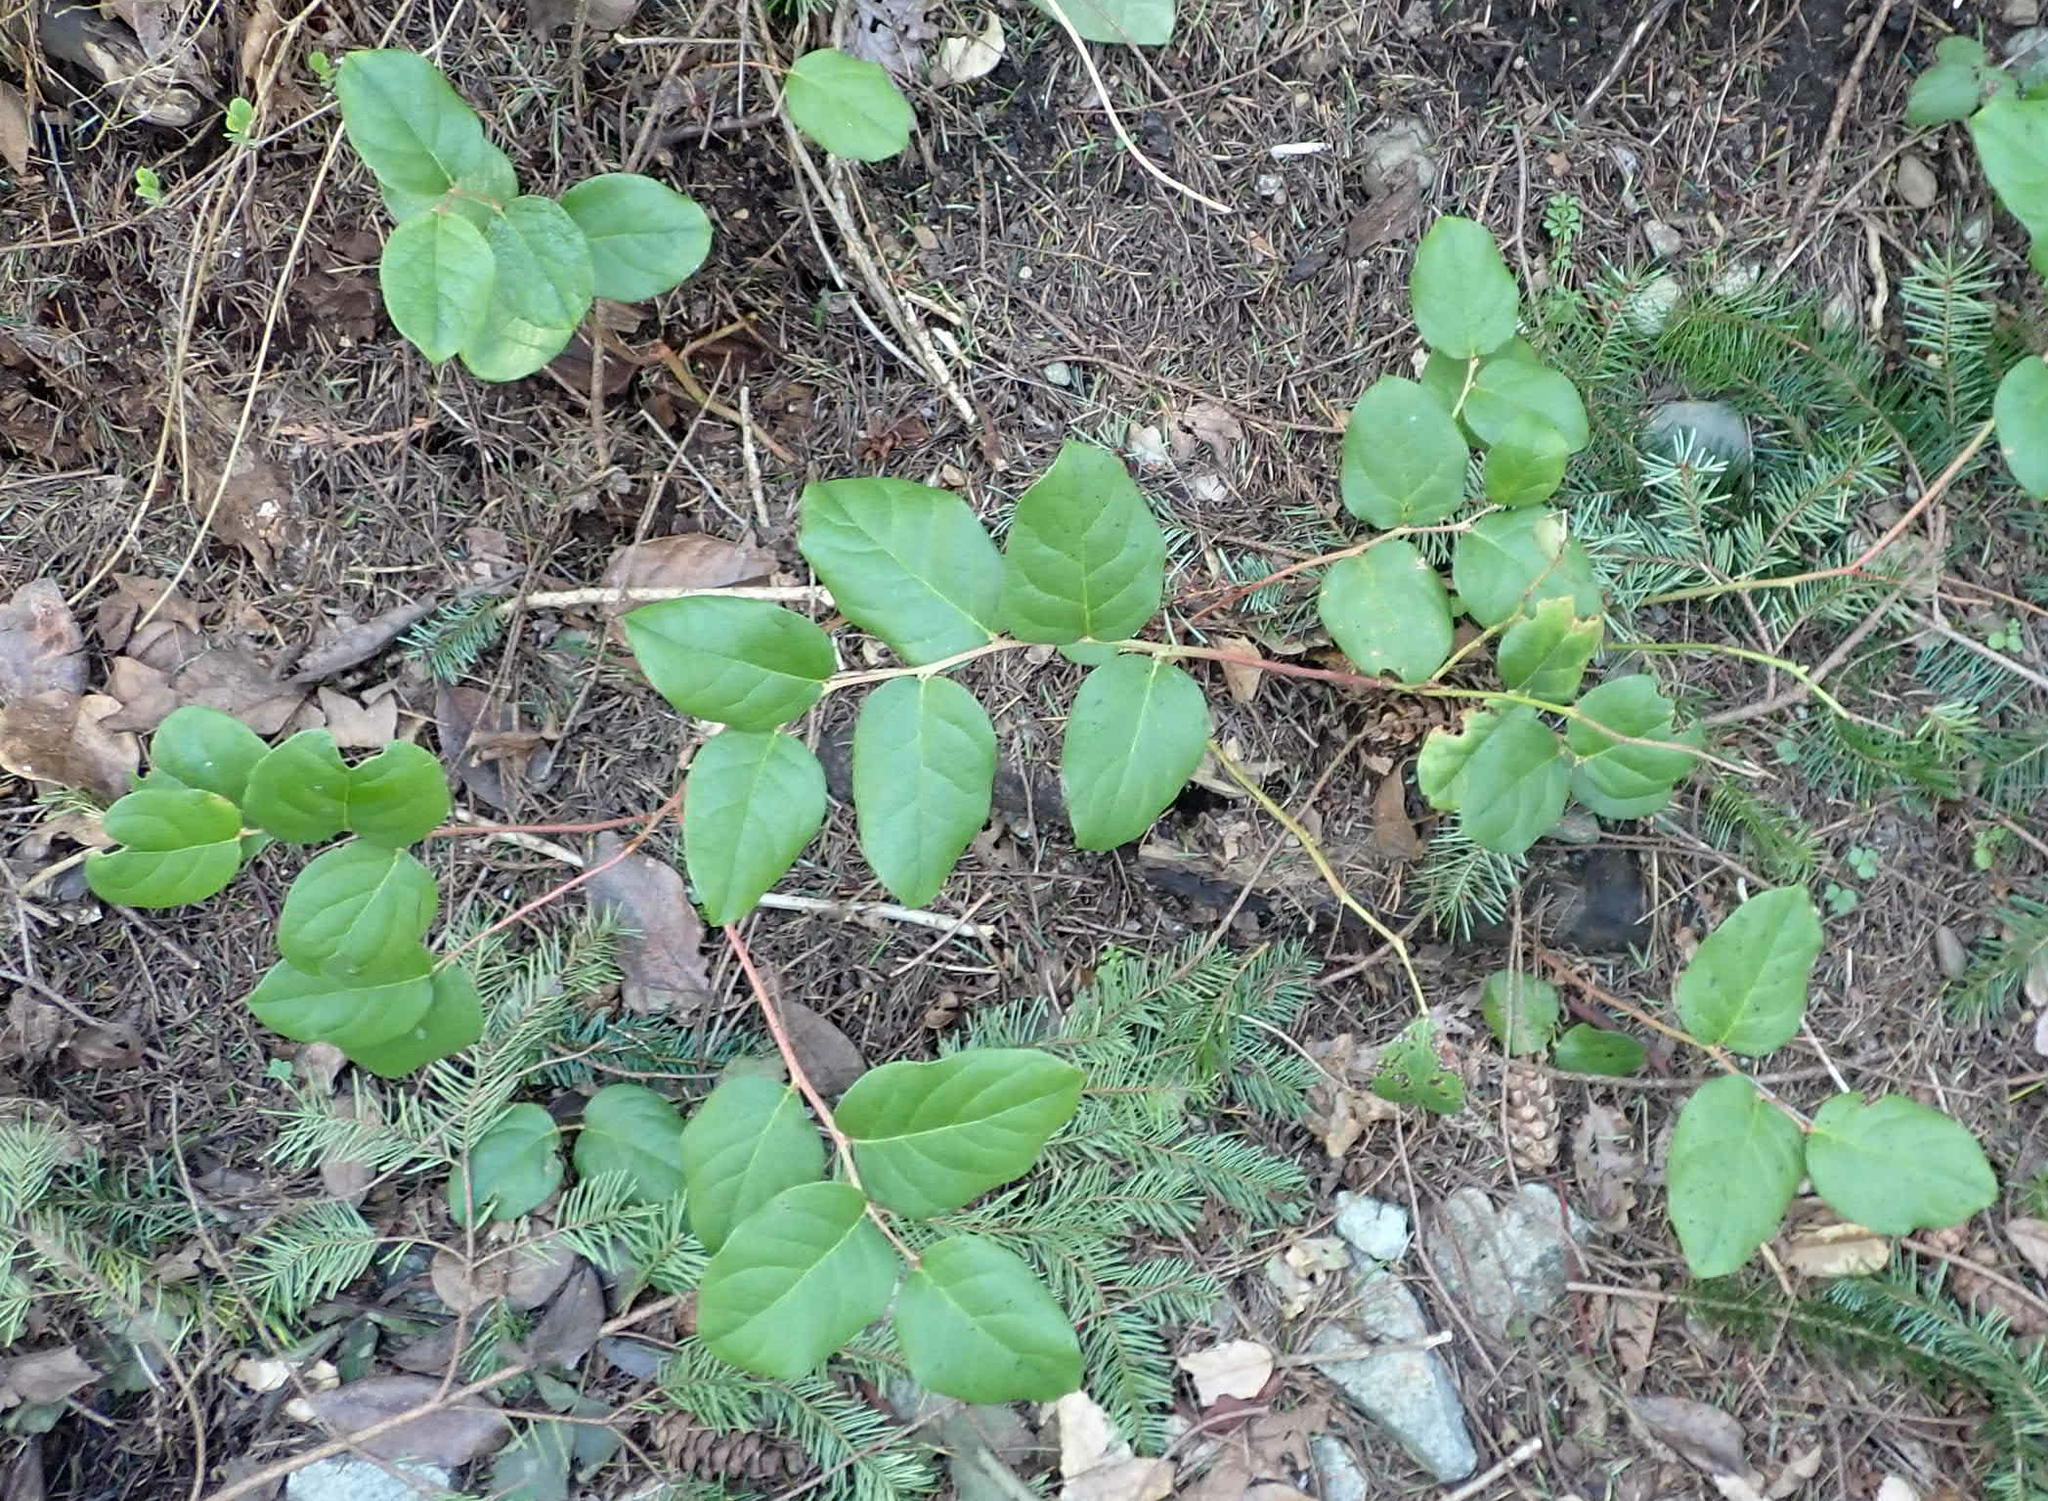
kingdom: Plantae
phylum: Tracheophyta
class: Magnoliopsida
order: Ericales
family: Ericaceae
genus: Gaultheria
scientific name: Gaultheria shallon
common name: Shallon
